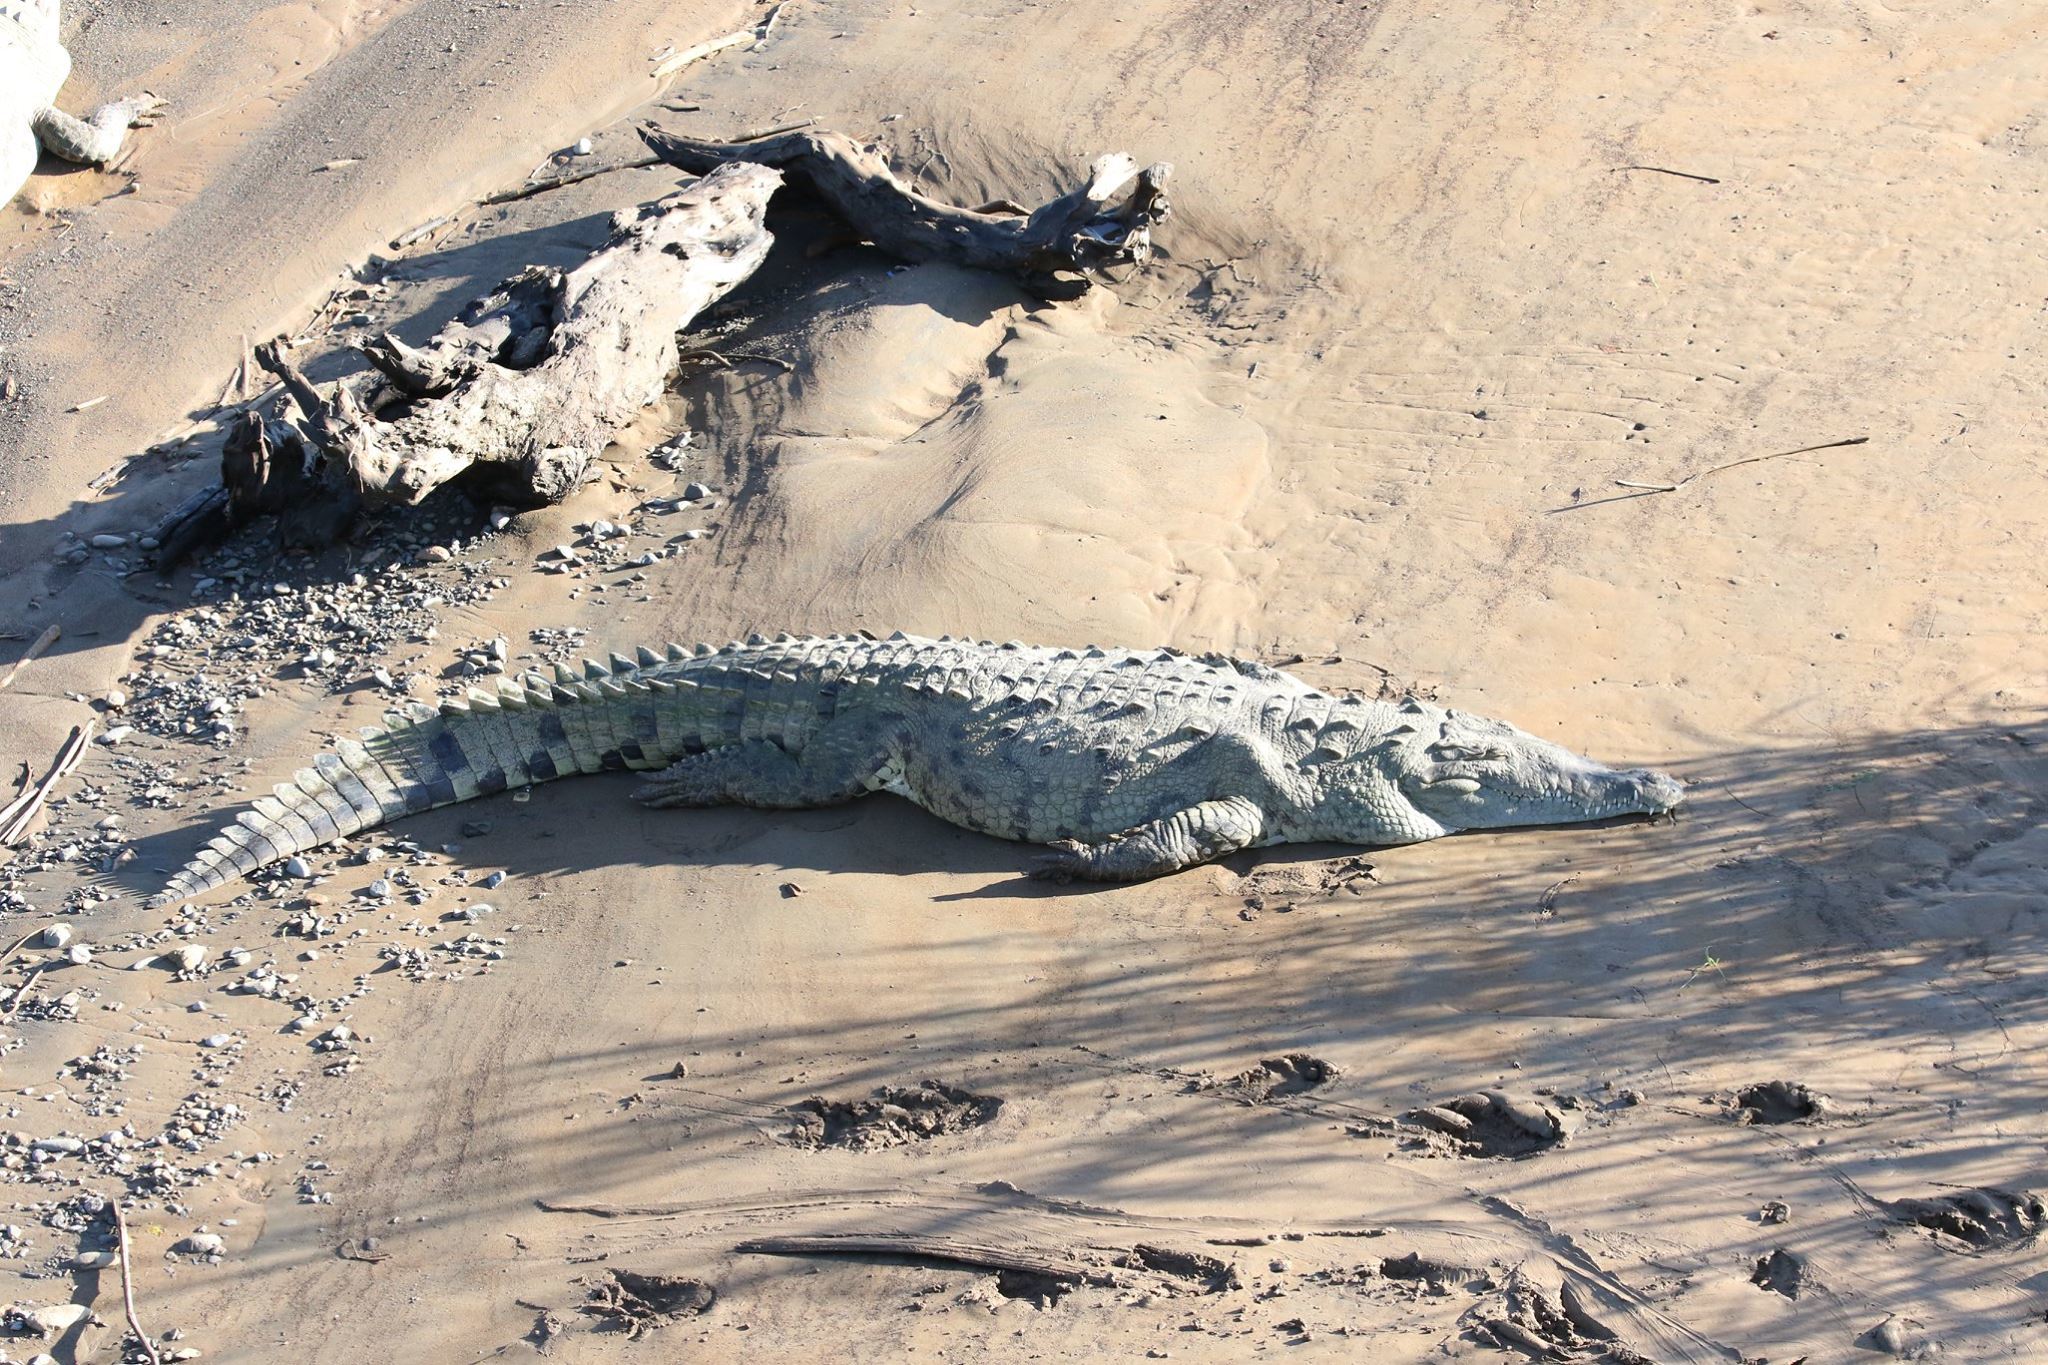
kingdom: Animalia
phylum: Chordata
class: Crocodylia
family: Crocodylidae
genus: Crocodylus
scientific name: Crocodylus acutus
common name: American crocodile
